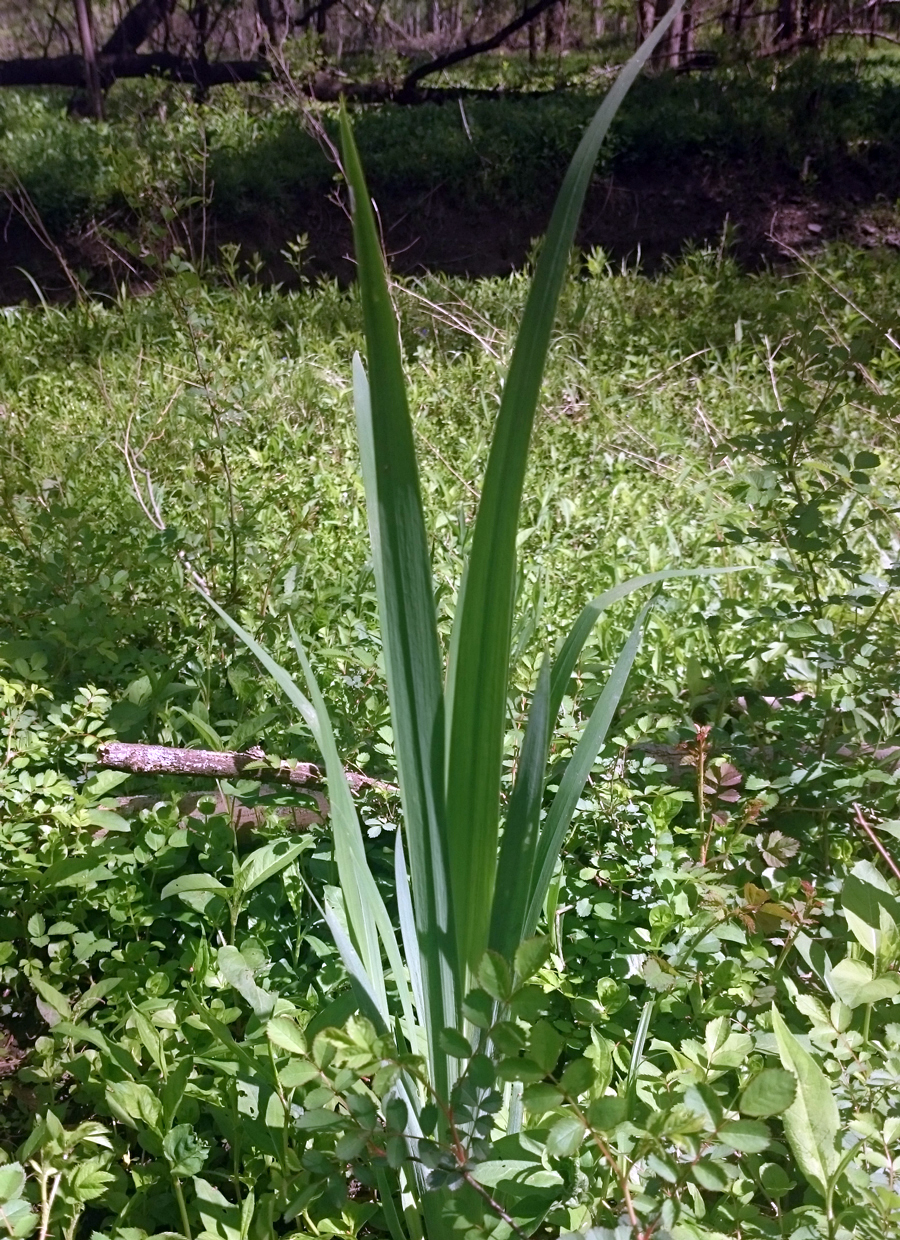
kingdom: Plantae
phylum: Tracheophyta
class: Liliopsida
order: Asparagales
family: Iridaceae
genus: Iris
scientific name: Iris
